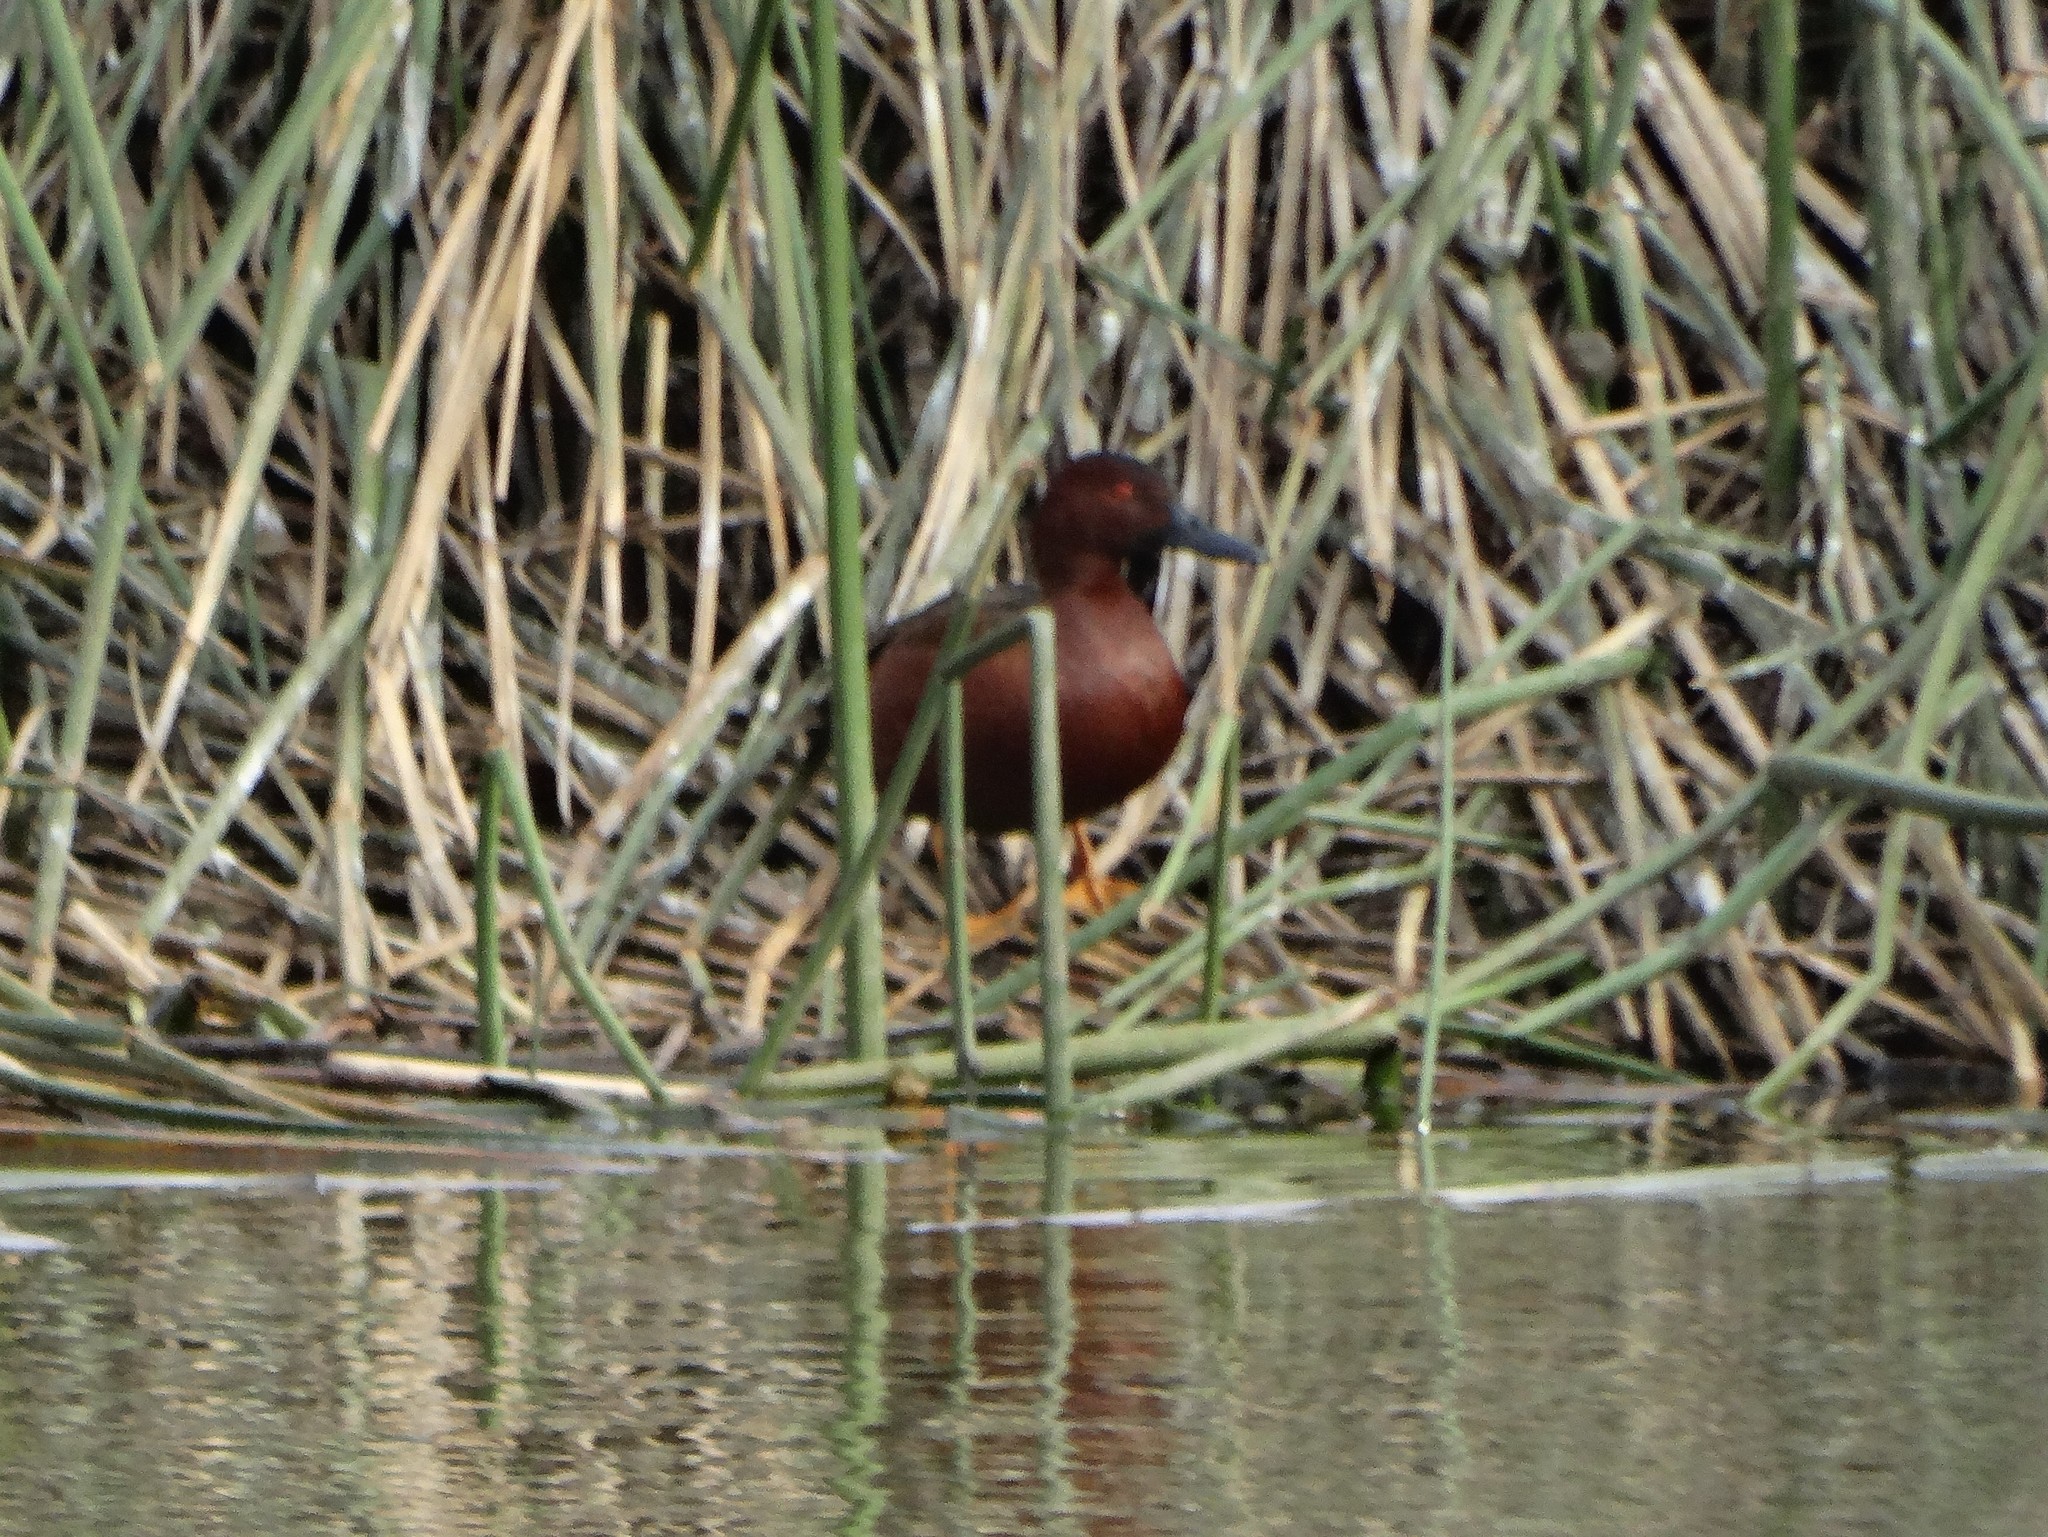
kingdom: Animalia
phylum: Chordata
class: Aves
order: Anseriformes
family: Anatidae
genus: Spatula
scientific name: Spatula cyanoptera
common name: Cinnamon teal
